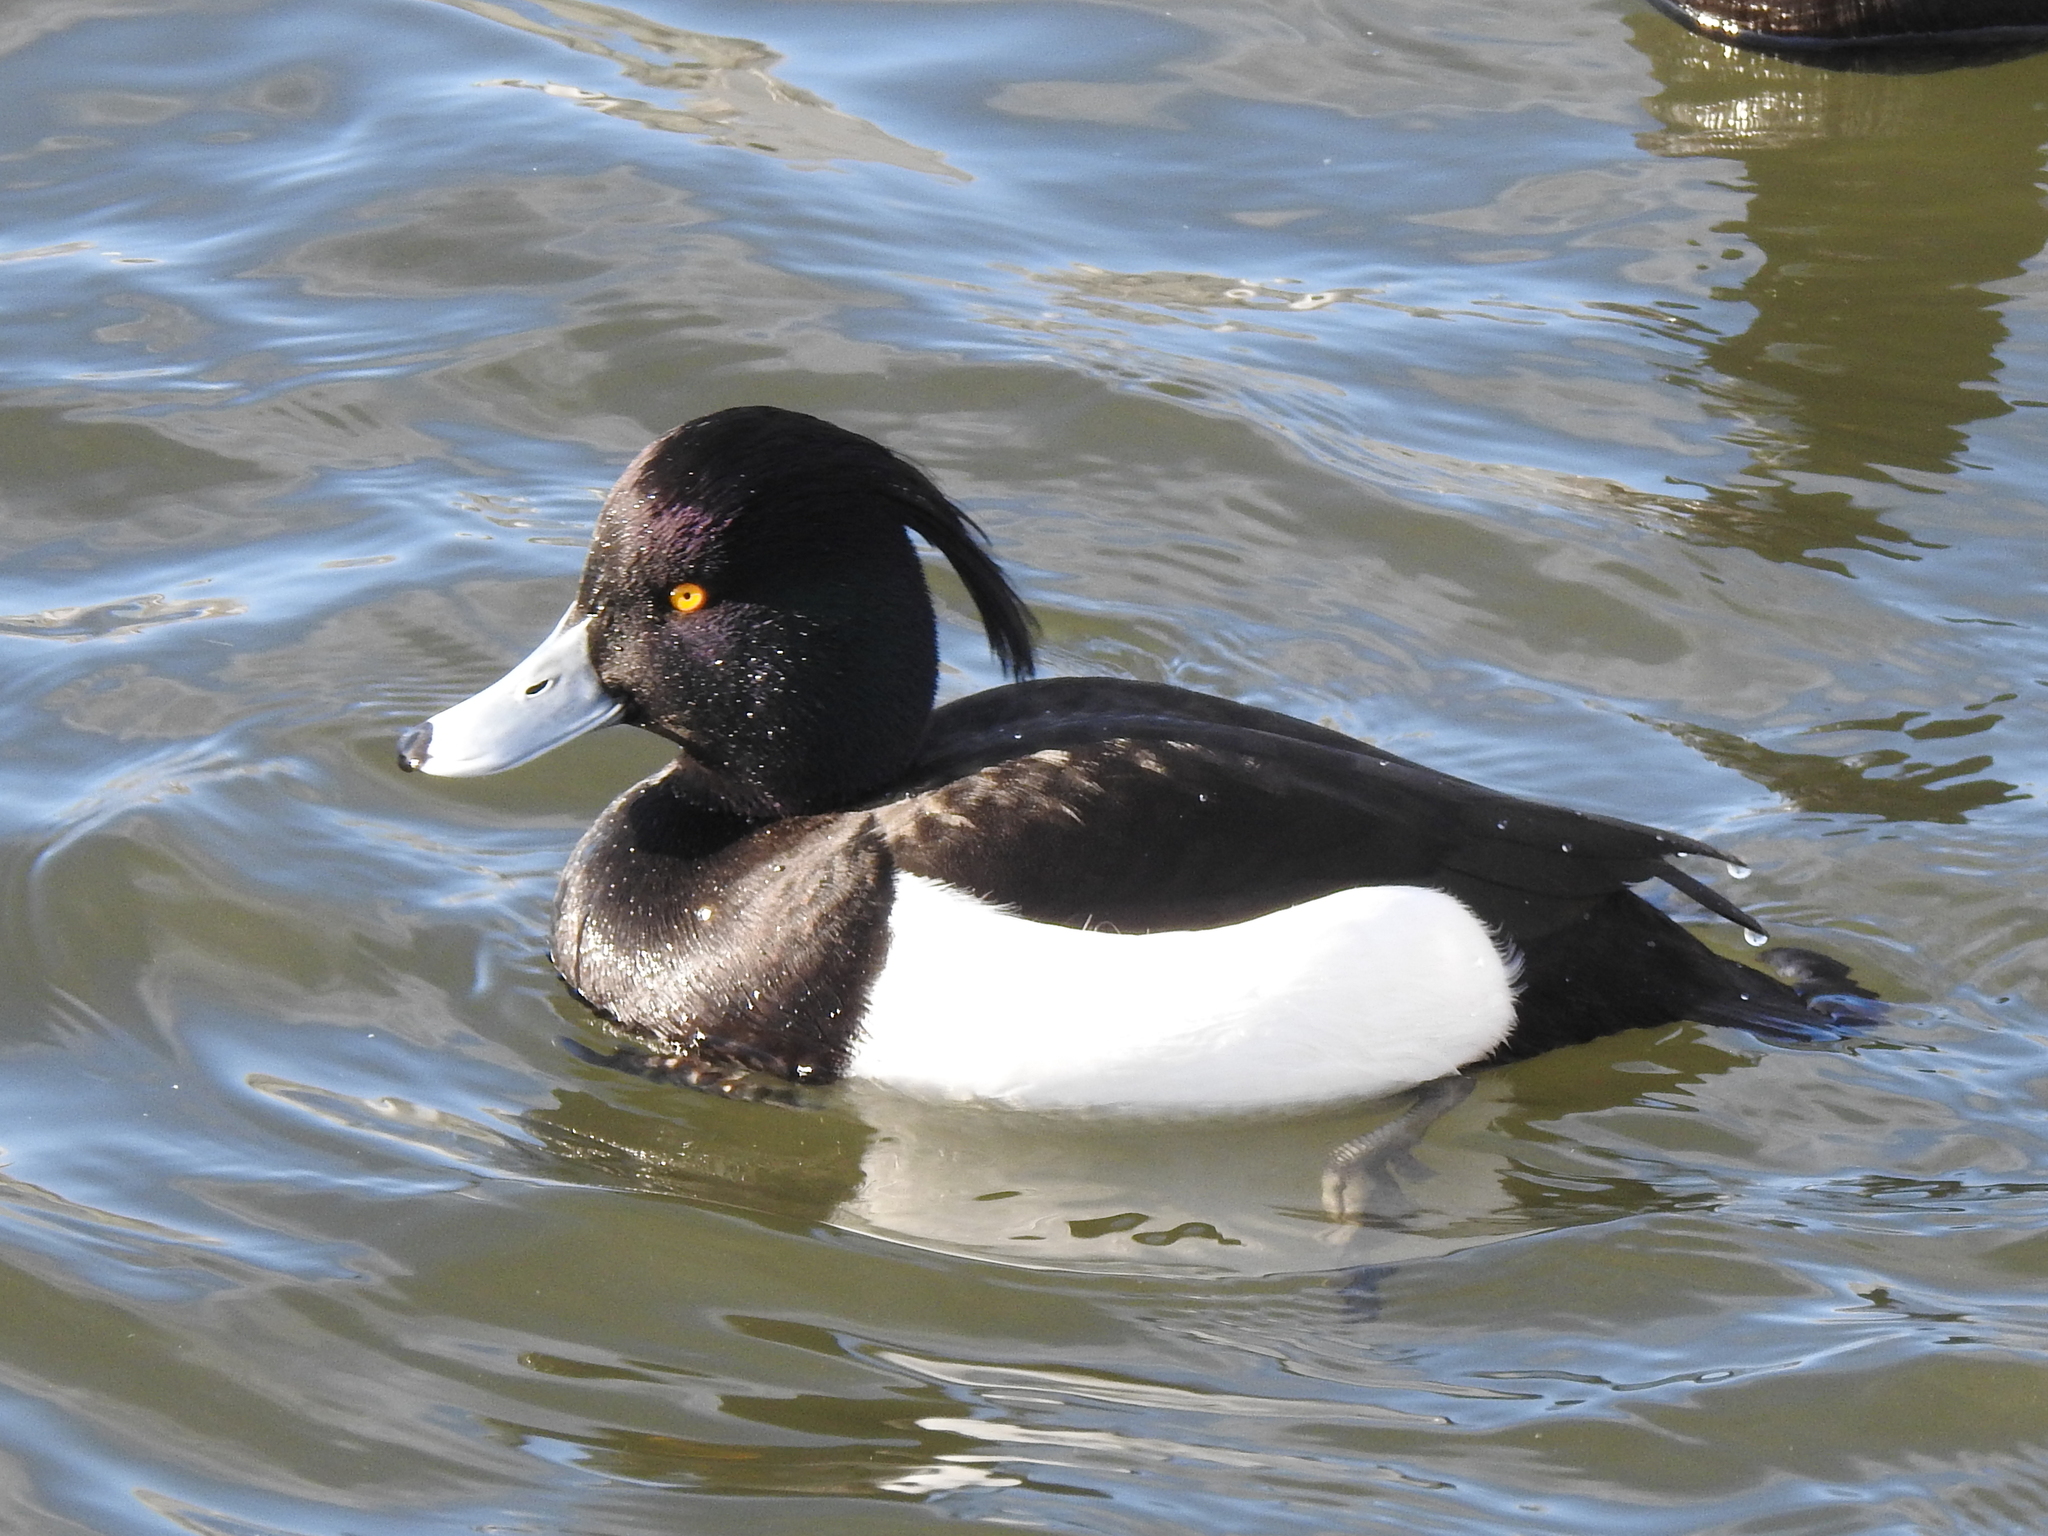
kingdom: Animalia
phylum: Chordata
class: Aves
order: Anseriformes
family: Anatidae
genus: Aythya
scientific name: Aythya fuligula
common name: Tufted duck
